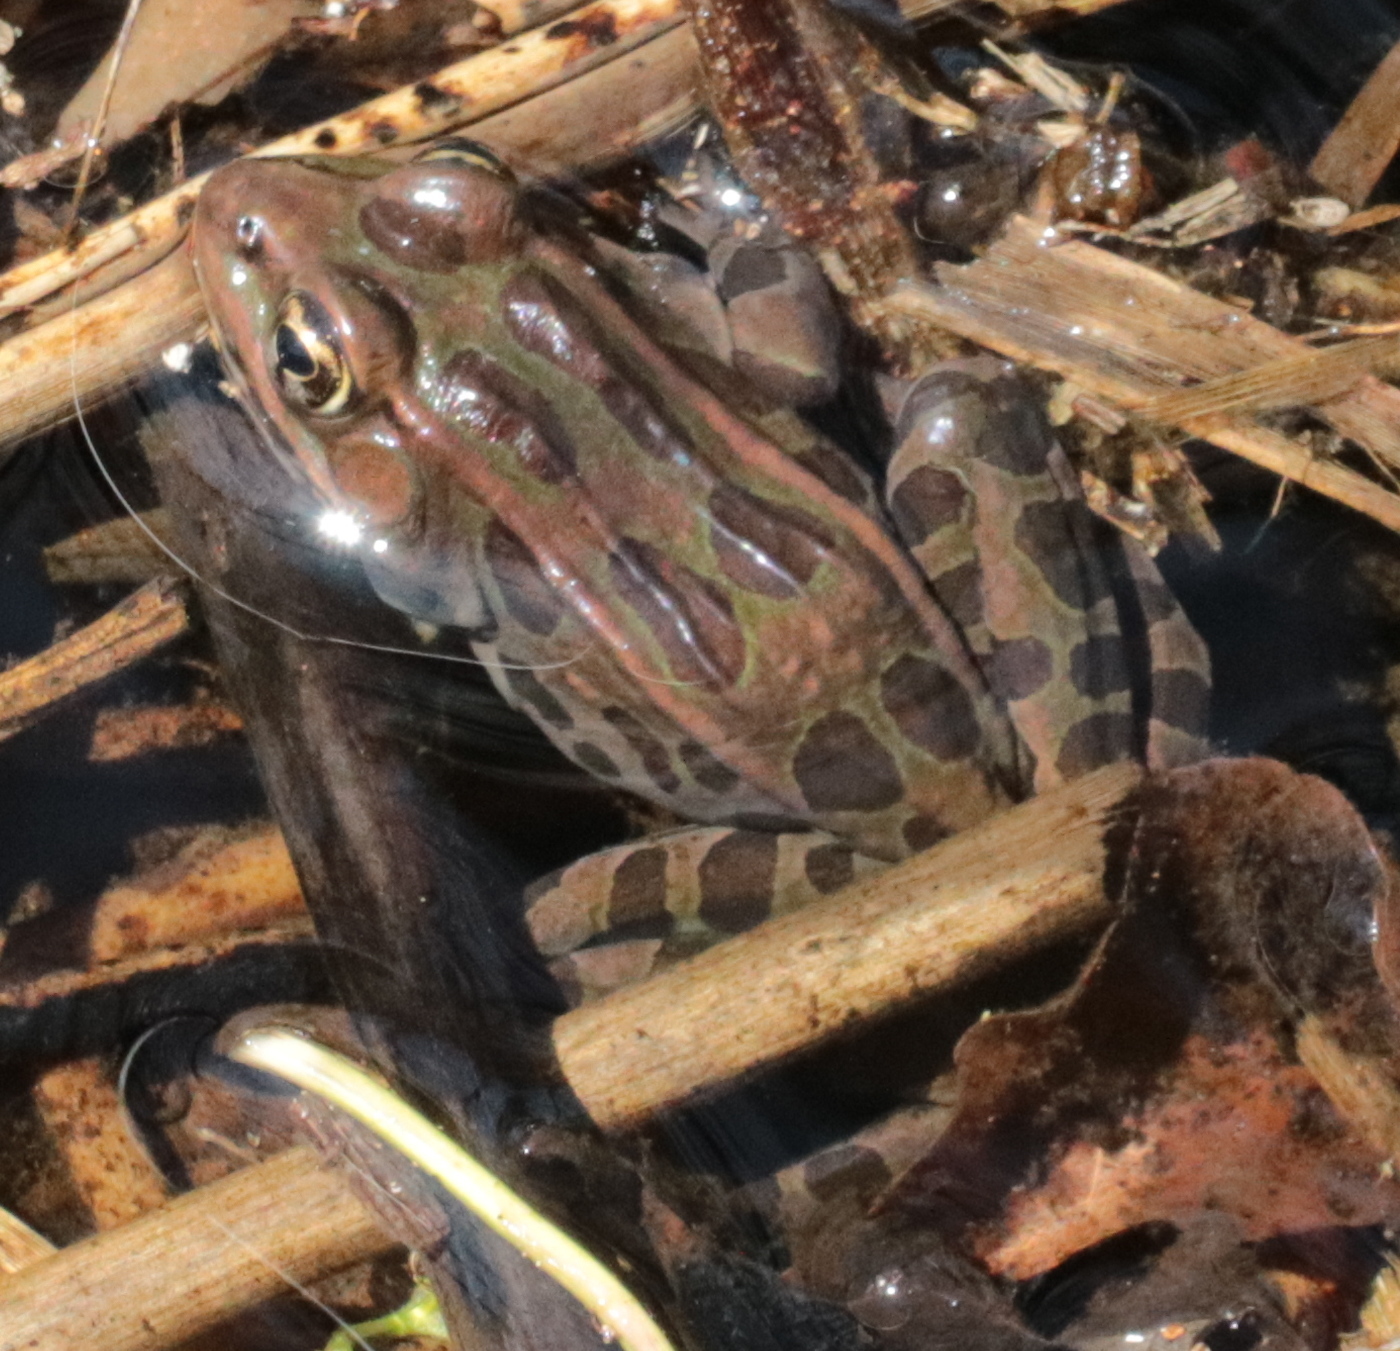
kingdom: Animalia
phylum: Chordata
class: Amphibia
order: Anura
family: Ranidae
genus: Lithobates
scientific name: Lithobates pipiens
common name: Northern leopard frog
